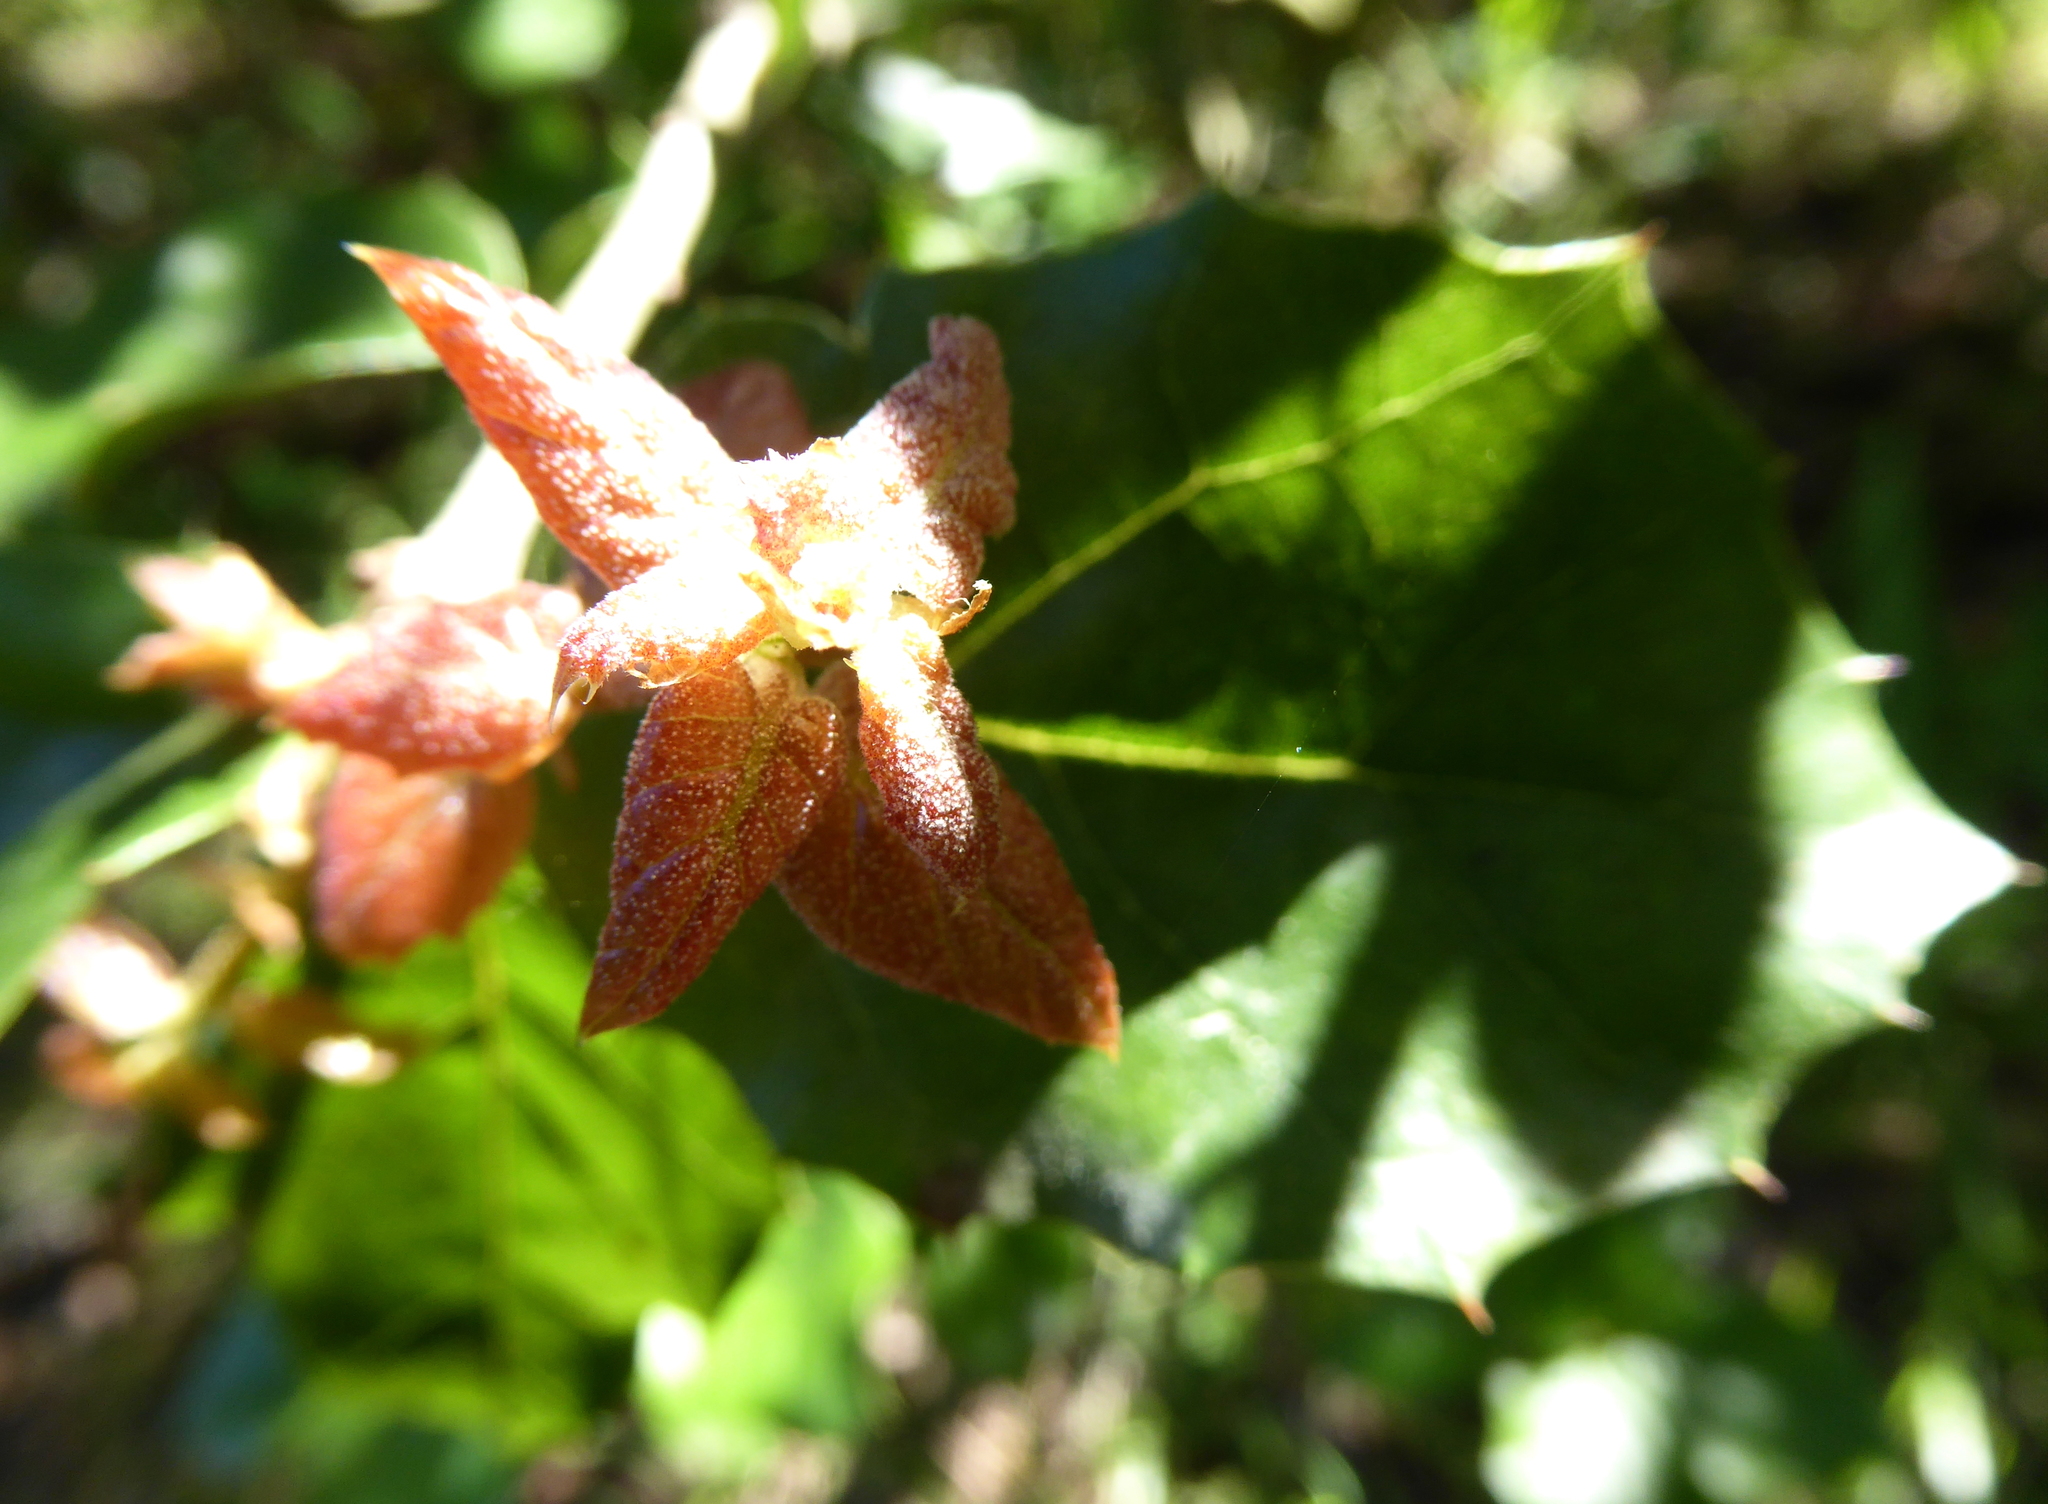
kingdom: Plantae
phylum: Tracheophyta
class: Magnoliopsida
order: Fagales
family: Fagaceae
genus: Quercus
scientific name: Quercus agrifolia
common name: California live oak
